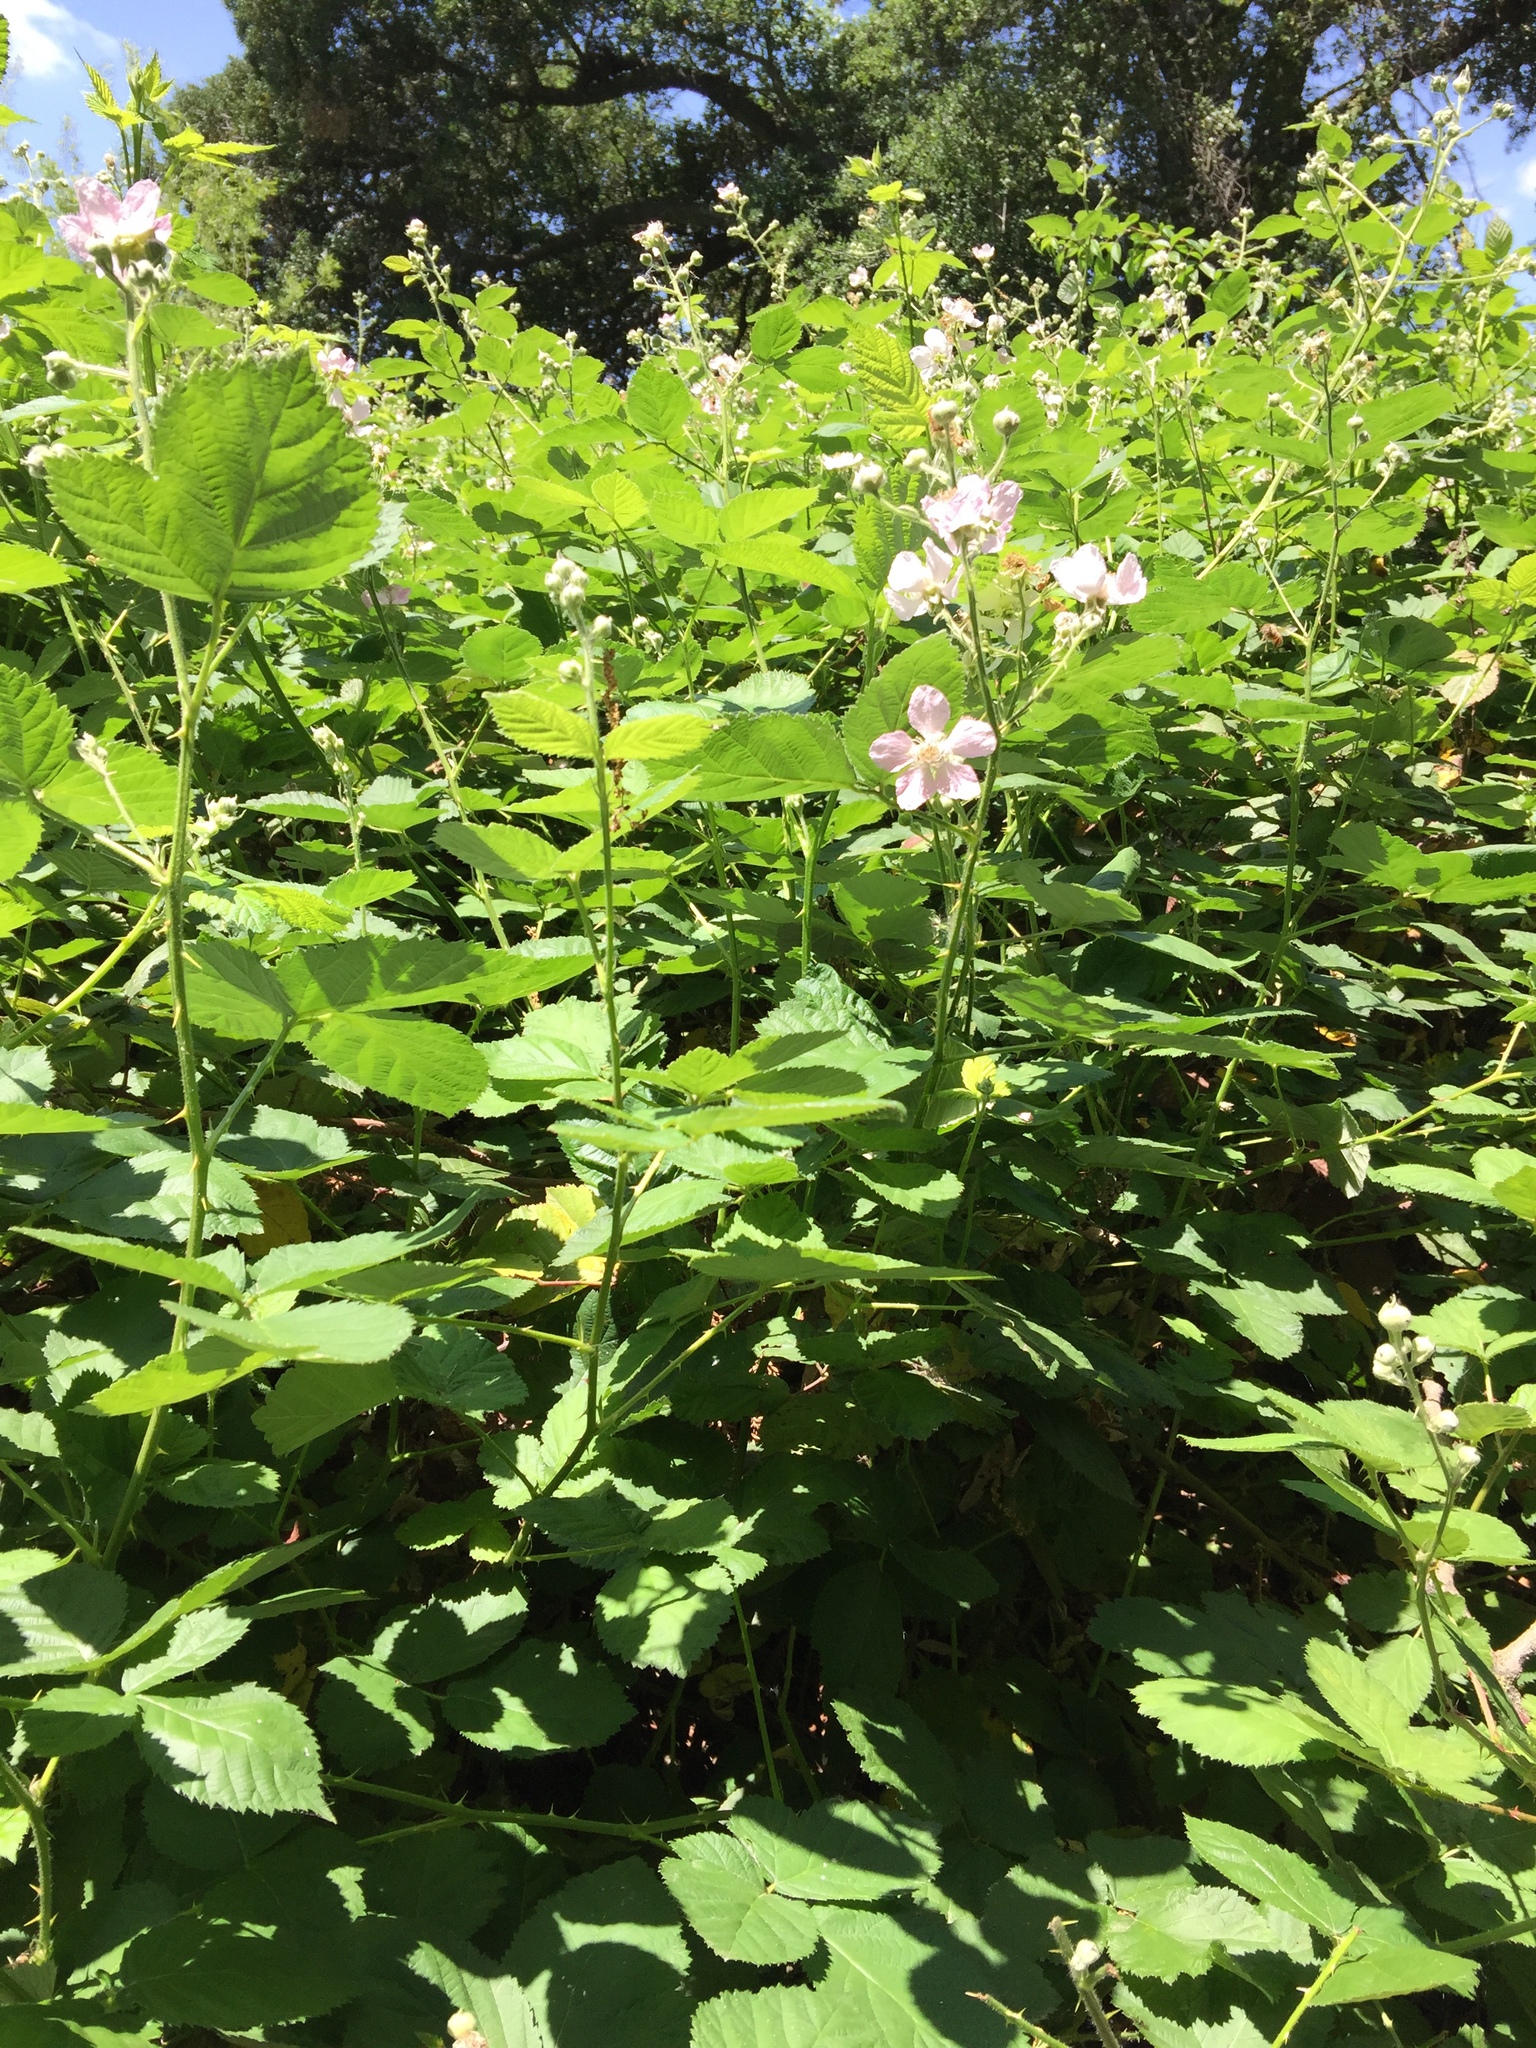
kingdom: Plantae
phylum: Tracheophyta
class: Magnoliopsida
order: Rosales
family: Rosaceae
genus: Rubus
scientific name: Rubus armeniacus
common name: Himalayan blackberry
